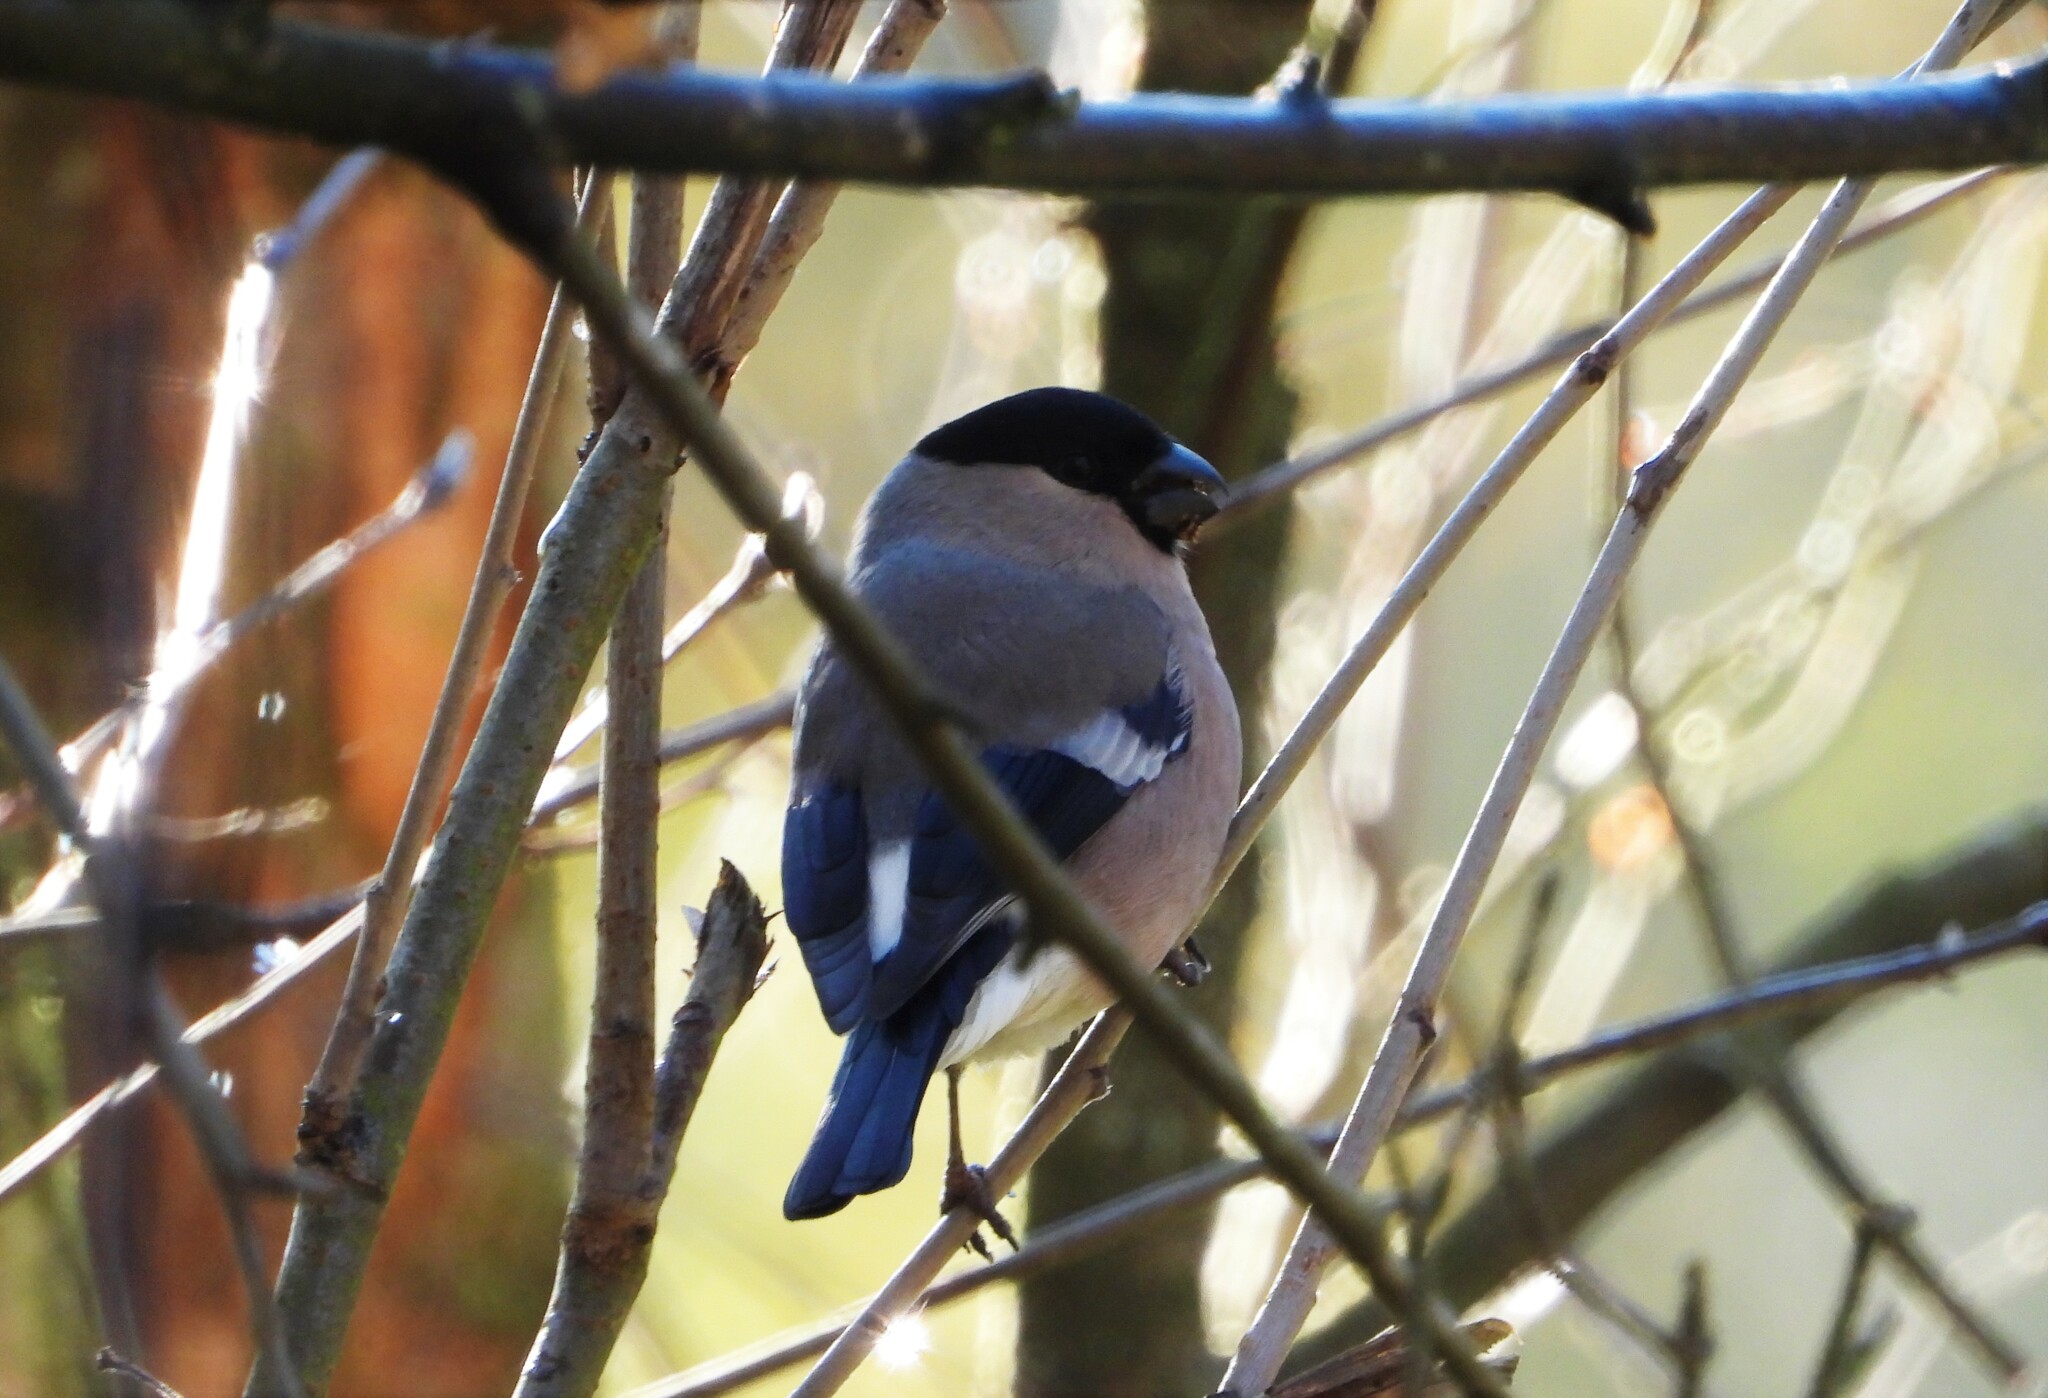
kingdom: Animalia
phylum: Chordata
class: Aves
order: Passeriformes
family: Fringillidae
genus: Pyrrhula
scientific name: Pyrrhula pyrrhula
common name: Eurasian bullfinch
